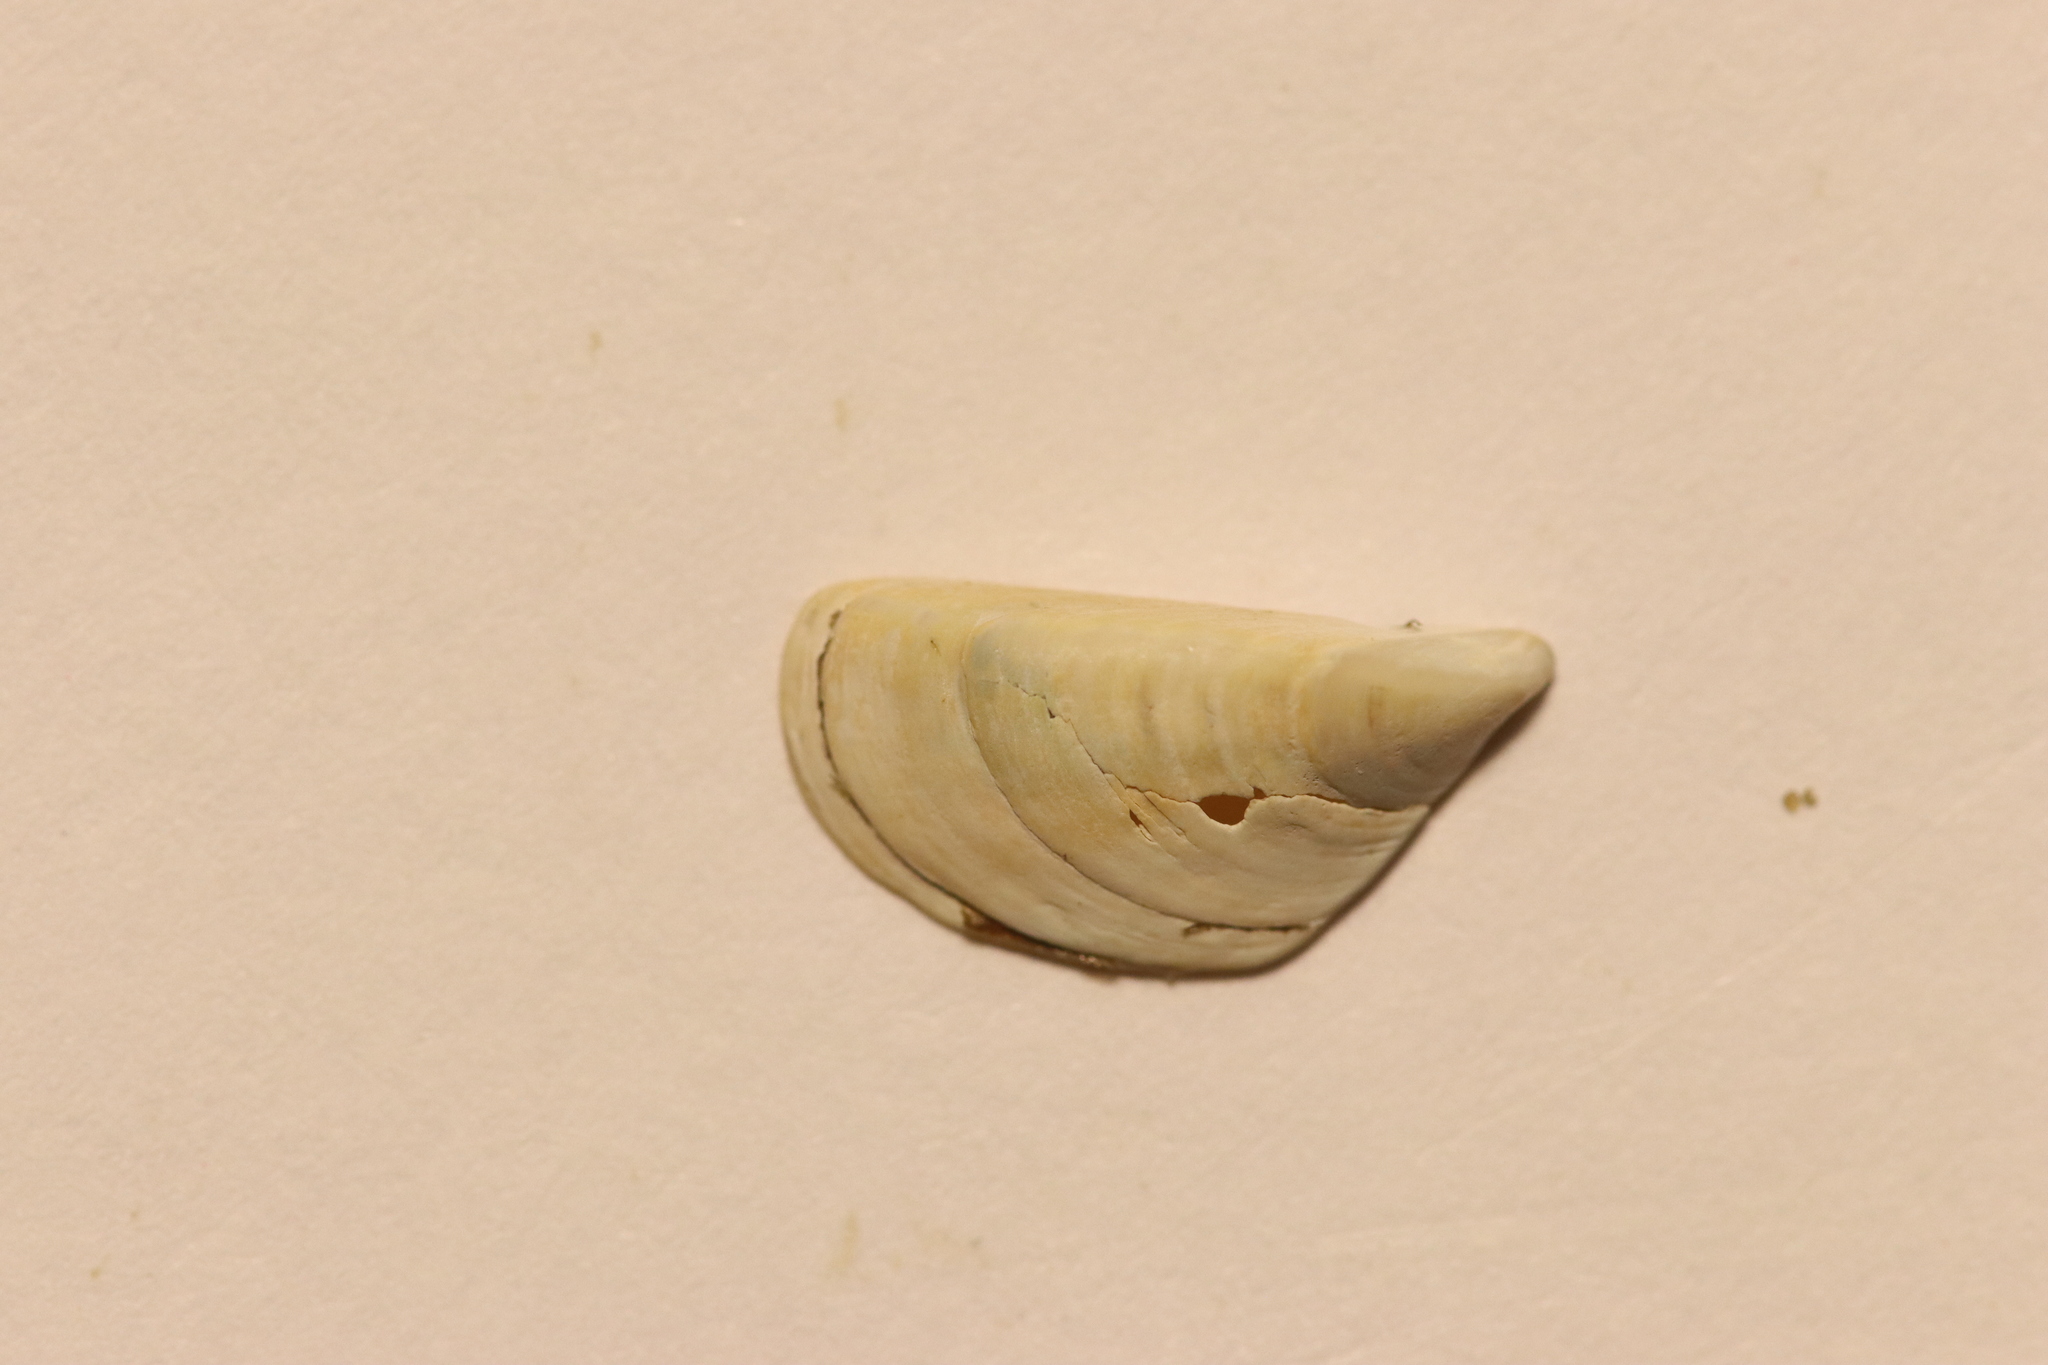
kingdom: Animalia
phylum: Mollusca
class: Bivalvia
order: Myida
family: Dreissenidae
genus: Dreissena
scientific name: Dreissena polymorpha
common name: Zebra mussel
